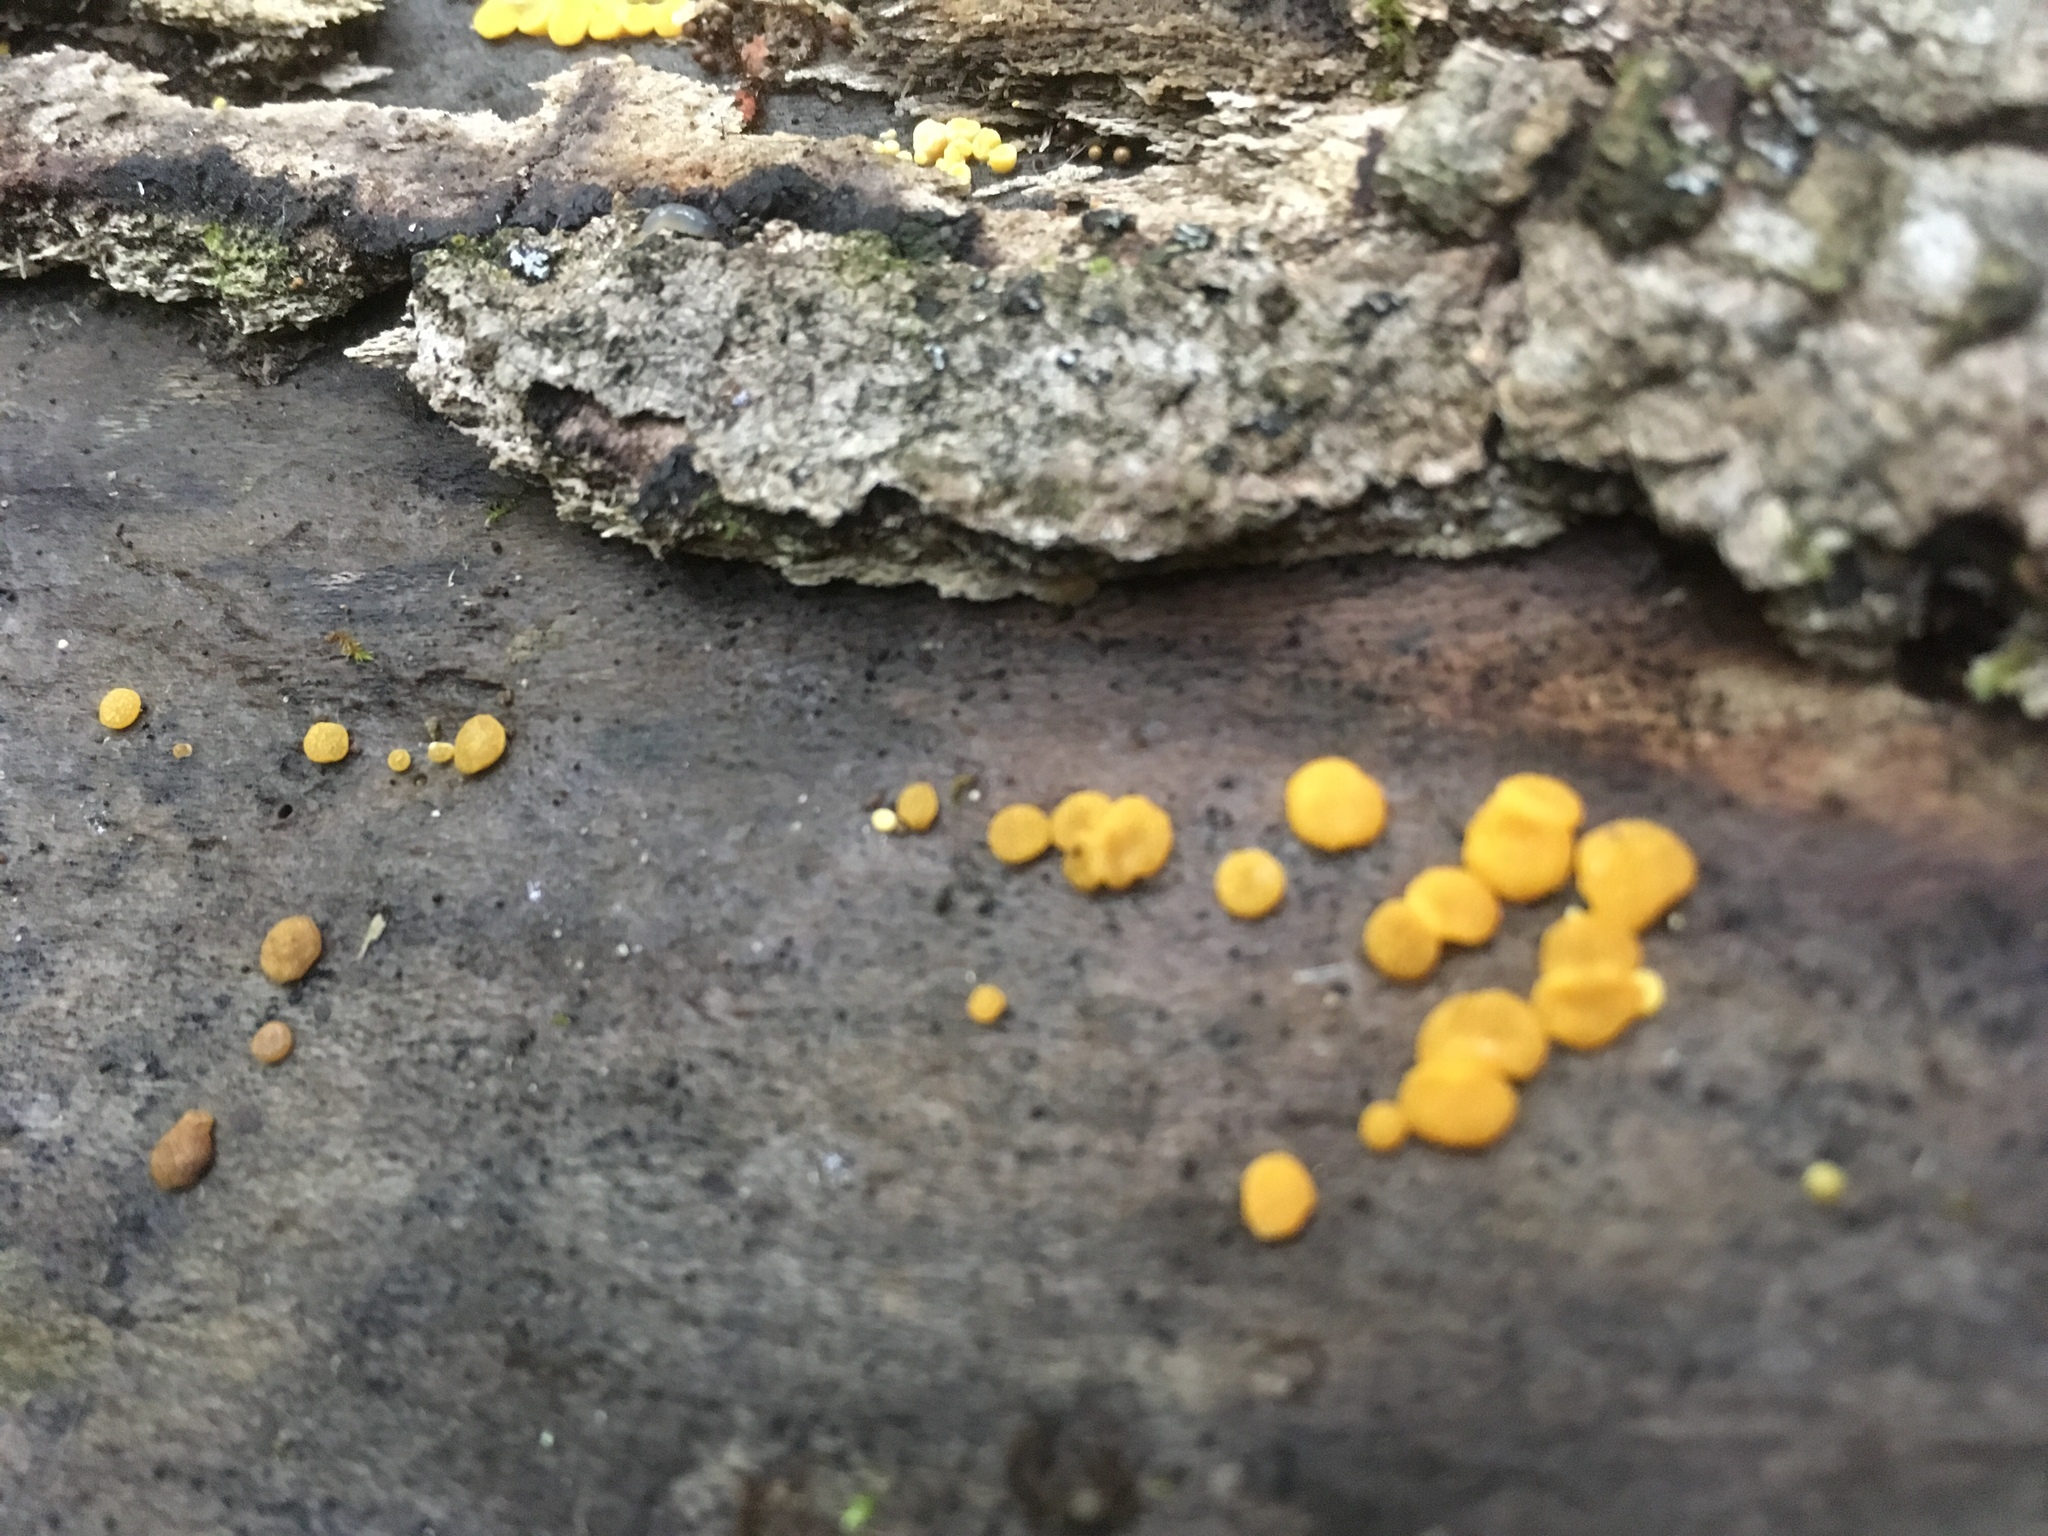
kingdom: Fungi
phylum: Ascomycota
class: Leotiomycetes
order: Helotiales
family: Pezizellaceae
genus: Calycina
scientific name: Calycina citrina
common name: Yellow fairy cups
